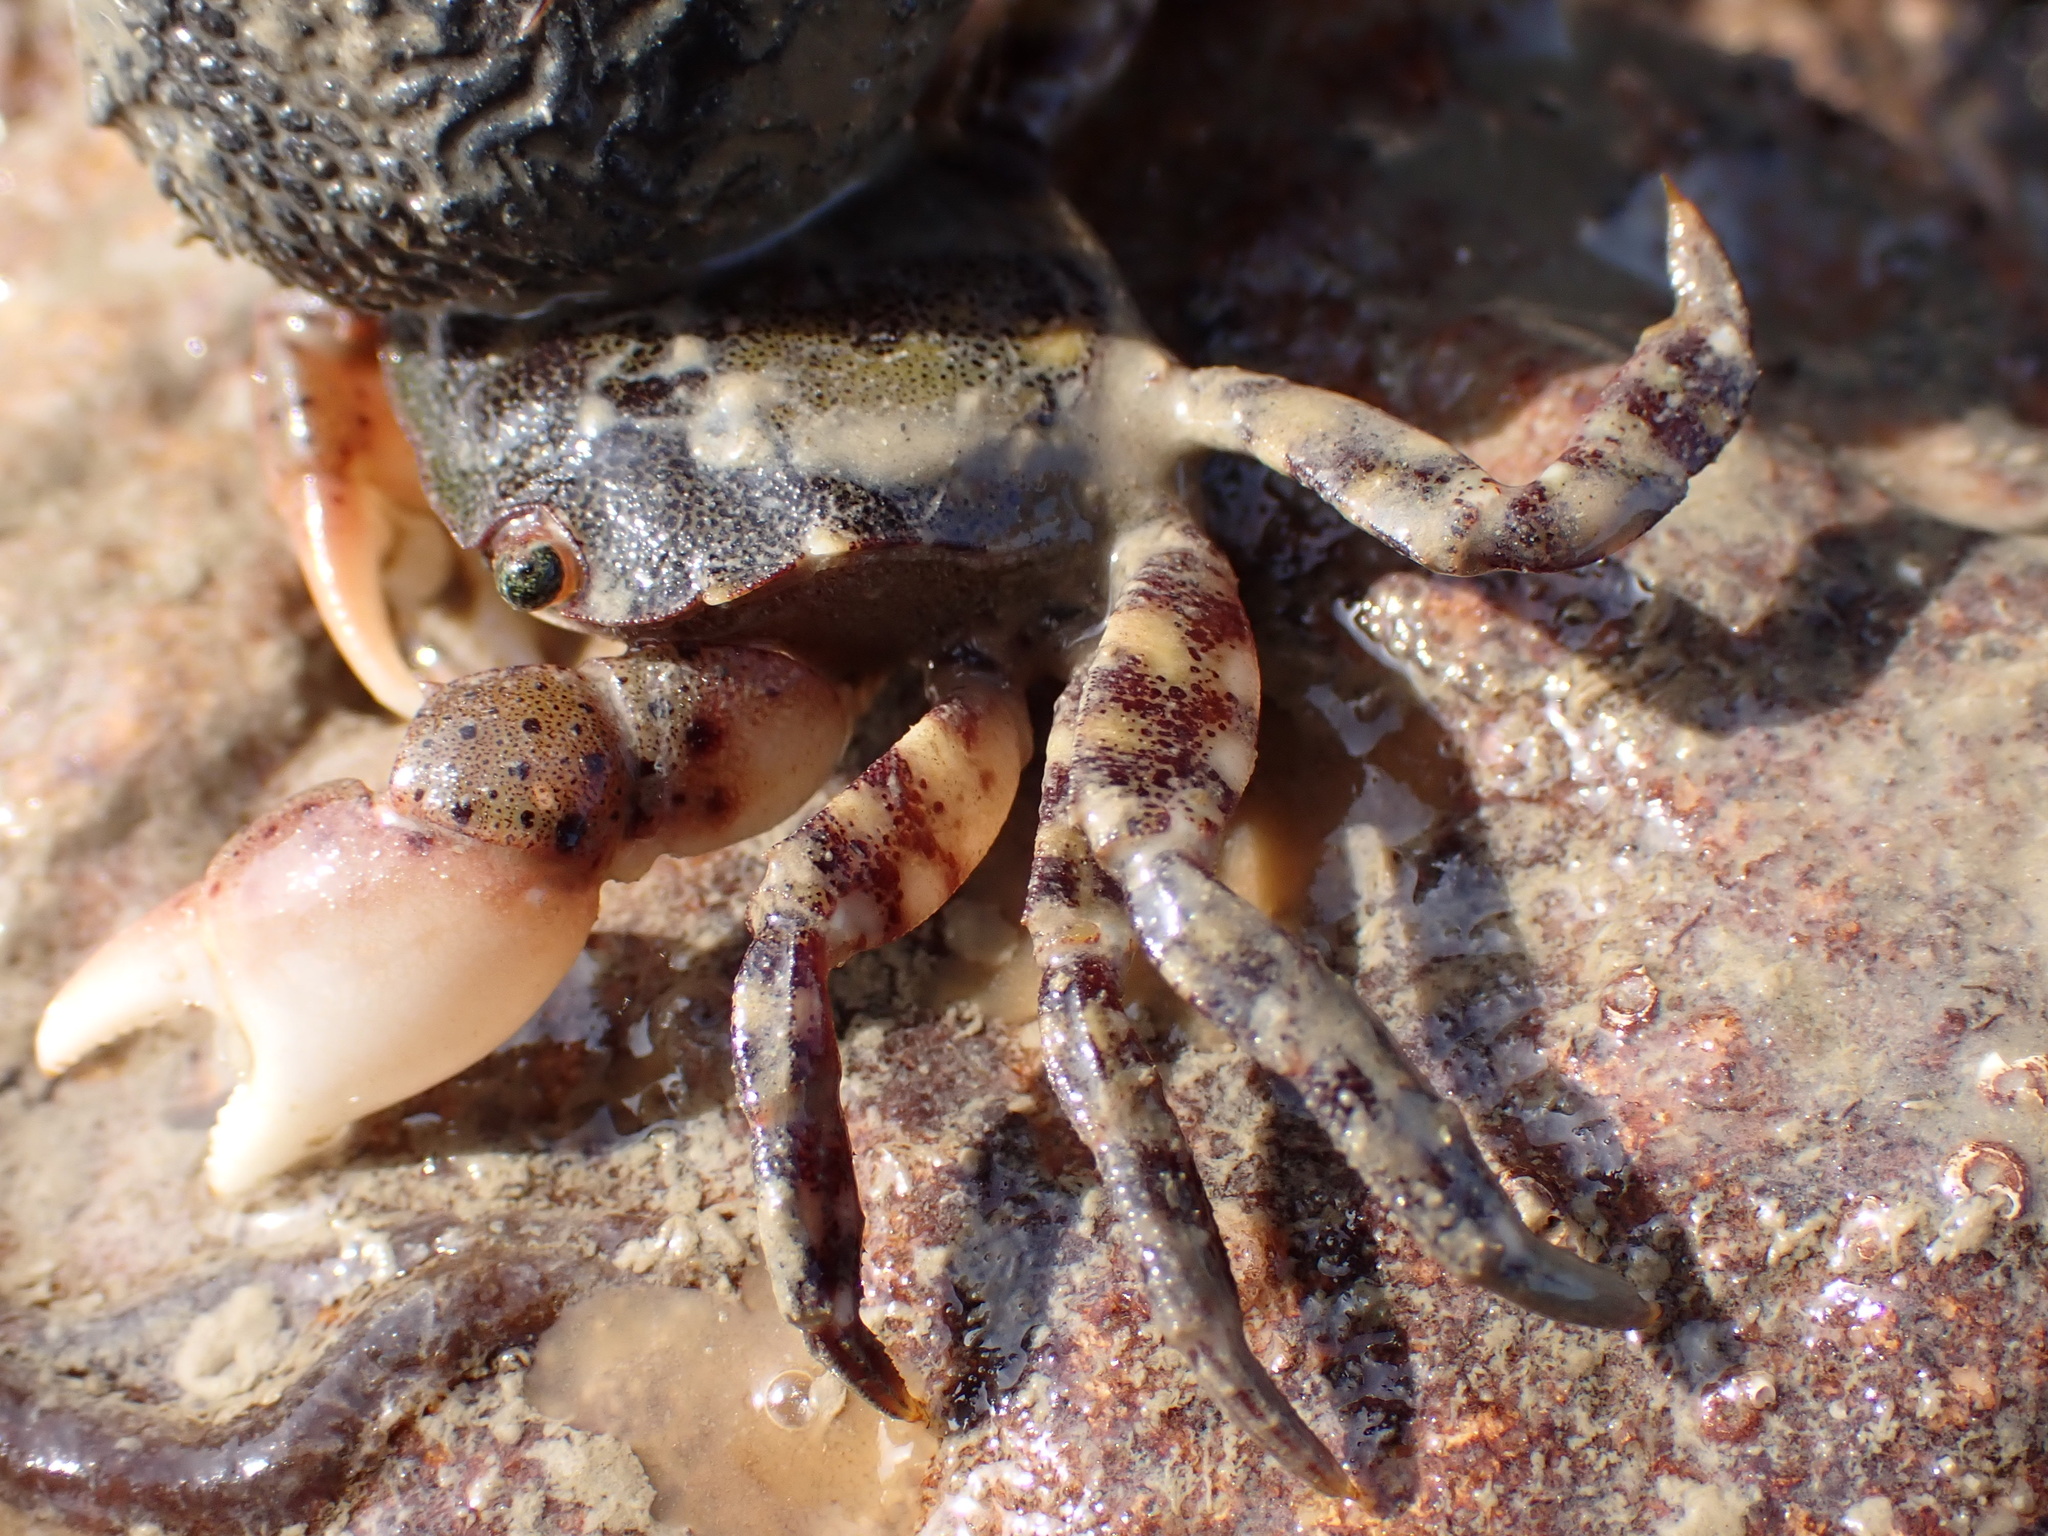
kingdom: Animalia
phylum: Arthropoda
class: Malacostraca
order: Decapoda
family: Varunidae
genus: Hemigrapsus
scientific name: Hemigrapsus sanguineus
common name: Asian shore crab
